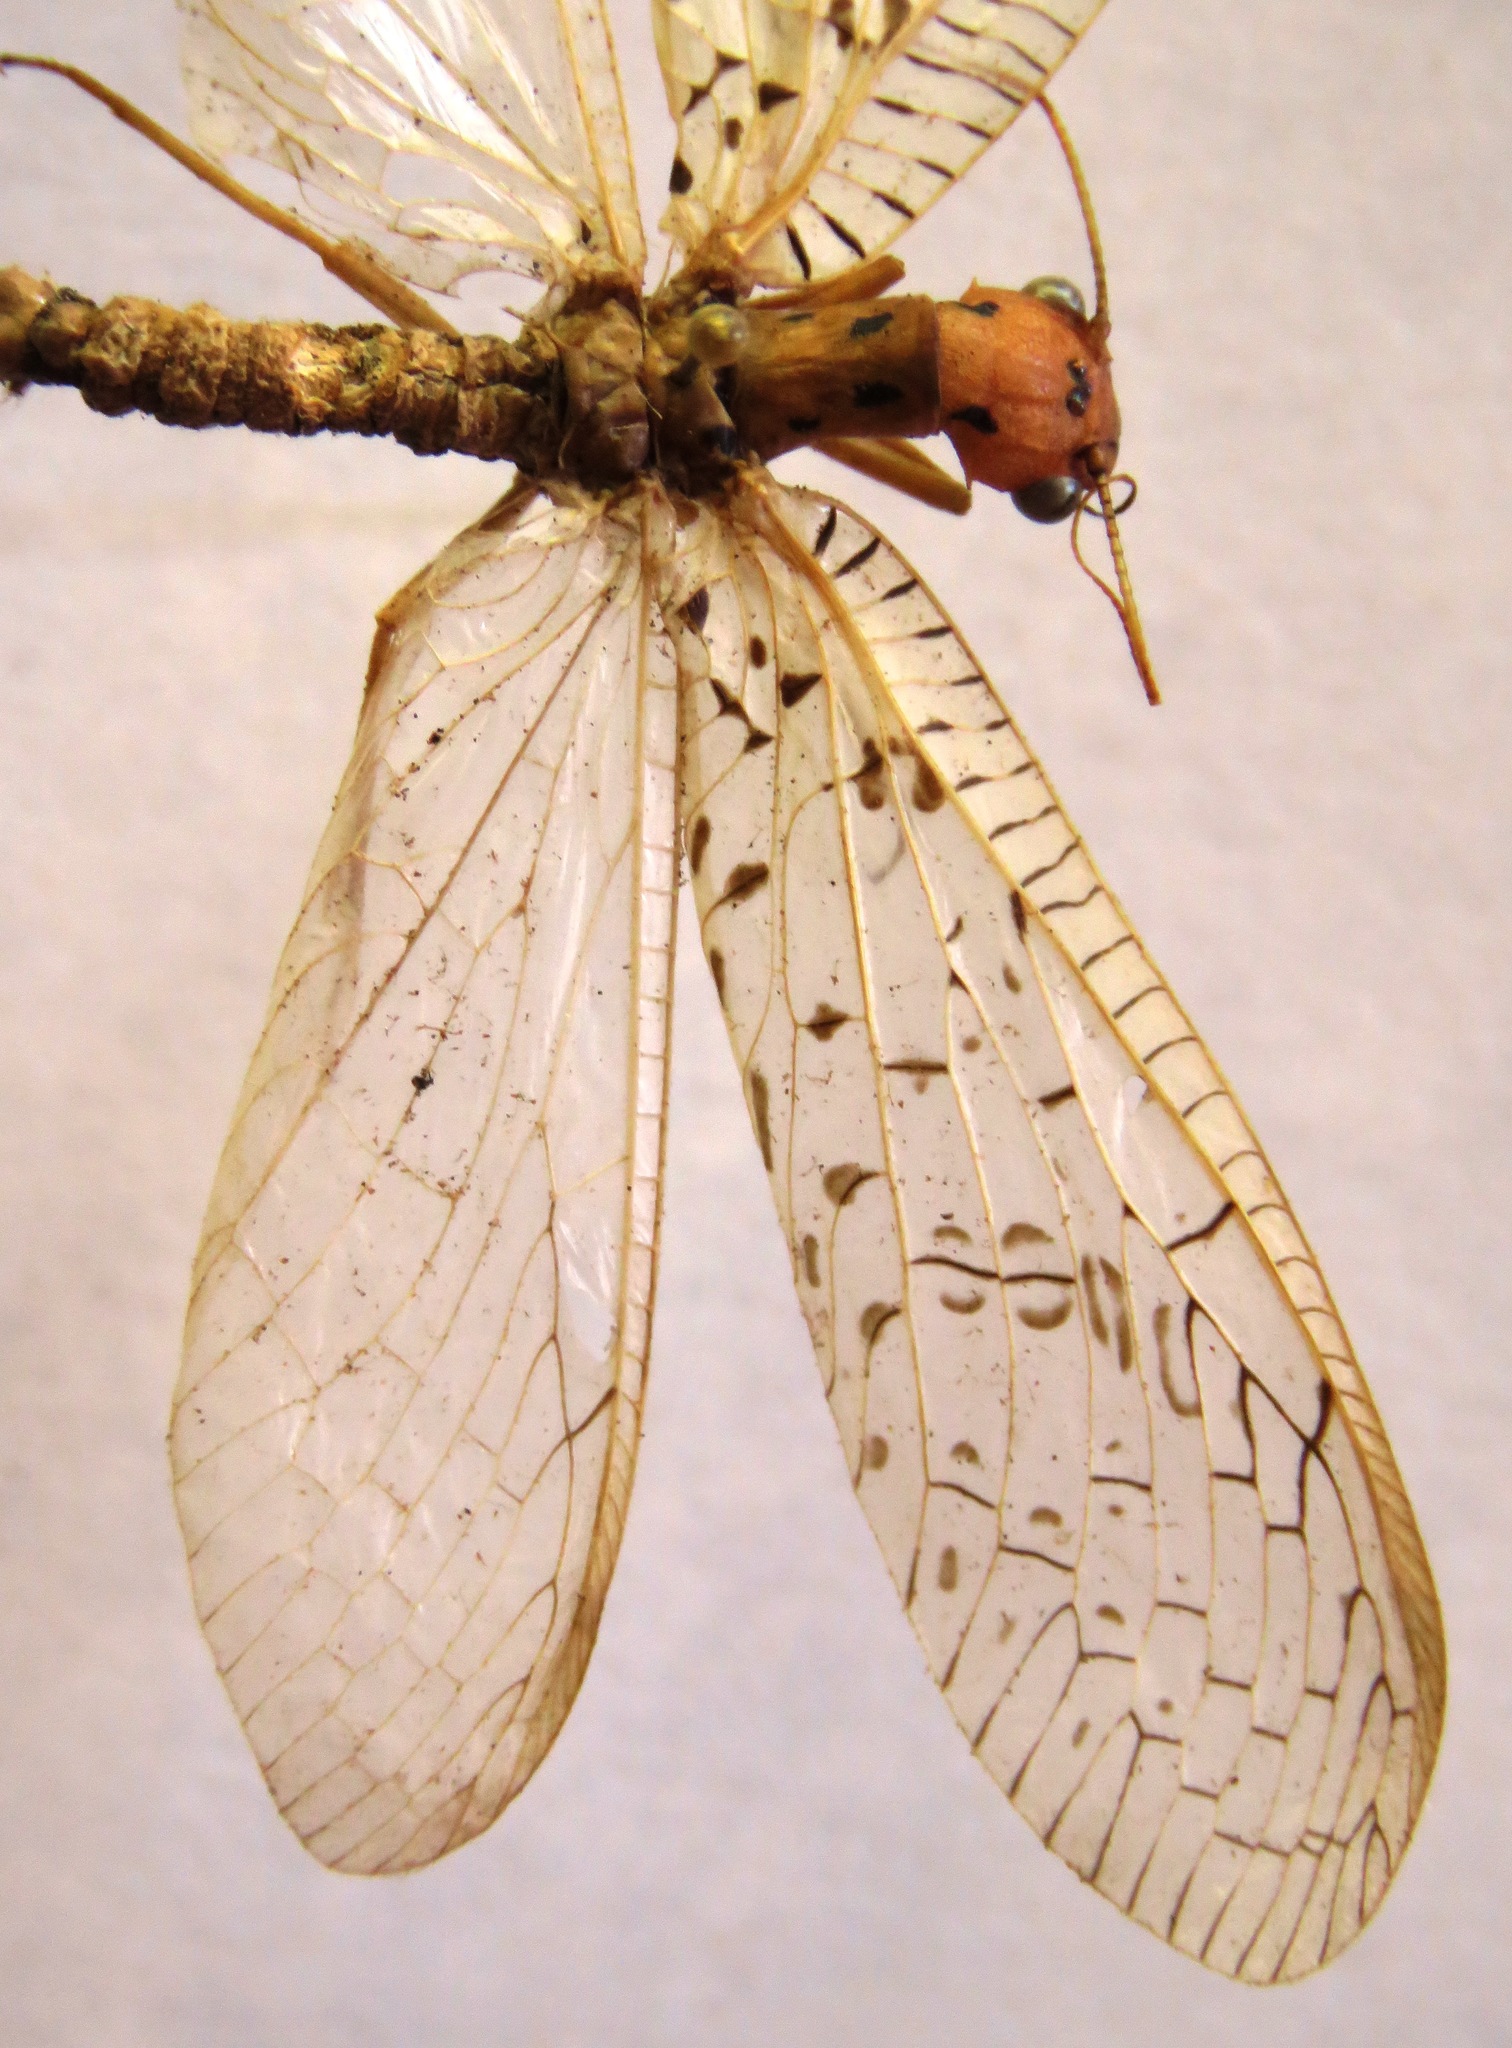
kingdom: Animalia
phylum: Arthropoda
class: Insecta
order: Megaloptera
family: Corydalidae
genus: Chloronia
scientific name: Chloronia mirifica
